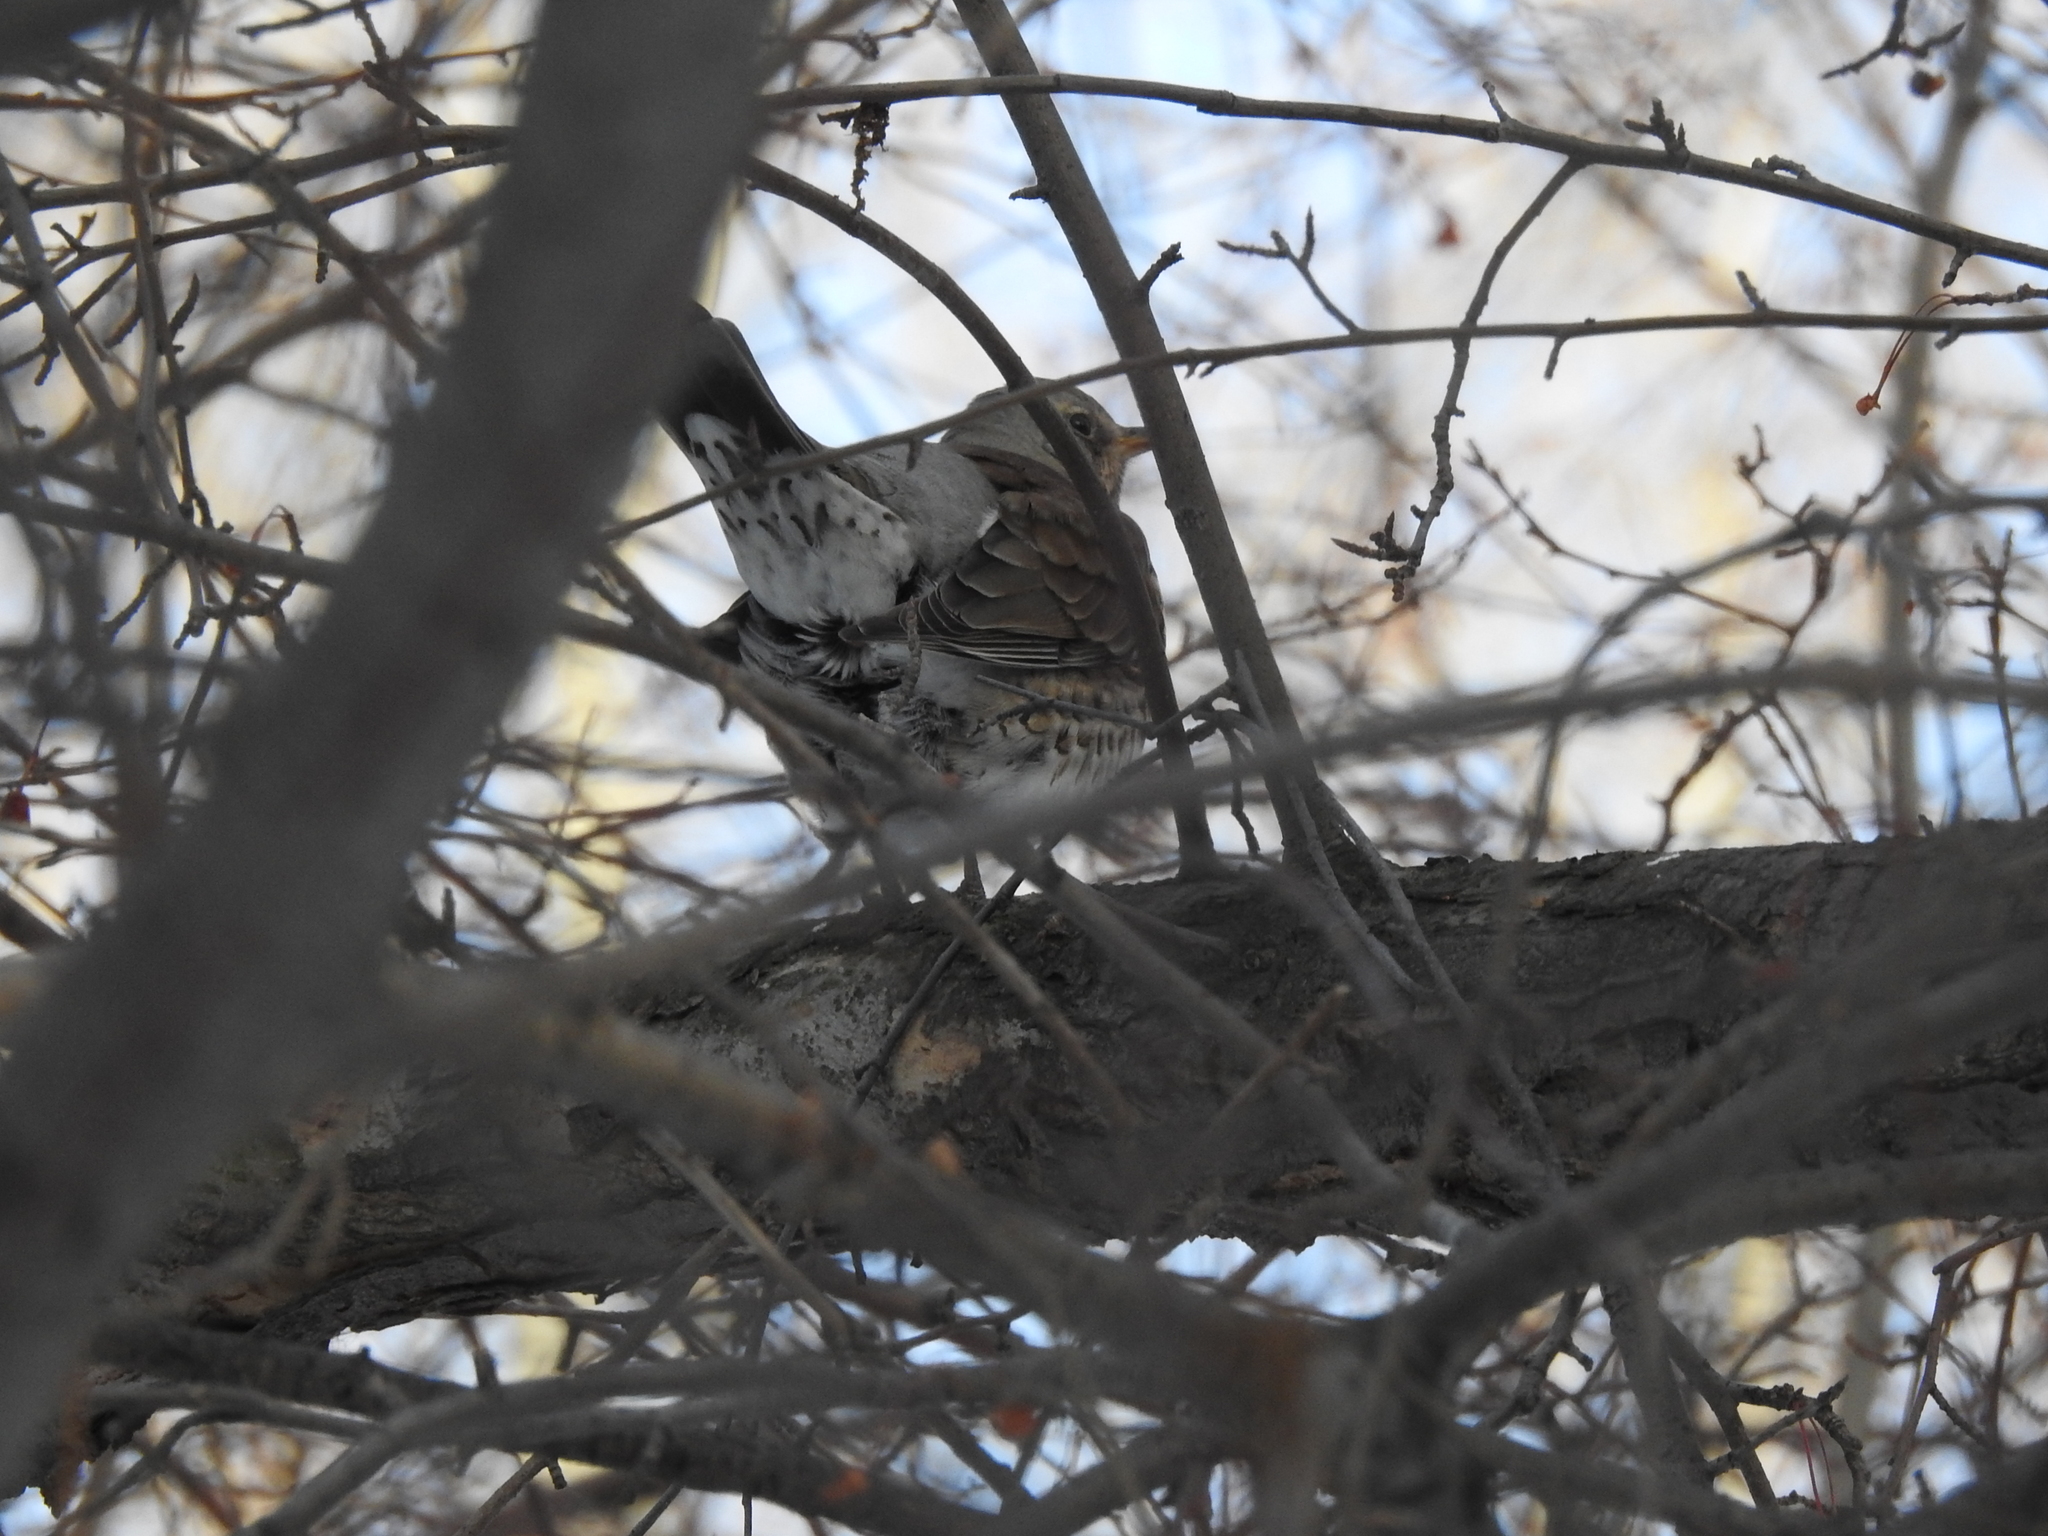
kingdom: Animalia
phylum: Chordata
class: Aves
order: Passeriformes
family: Turdidae
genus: Turdus
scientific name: Turdus pilaris
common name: Fieldfare
